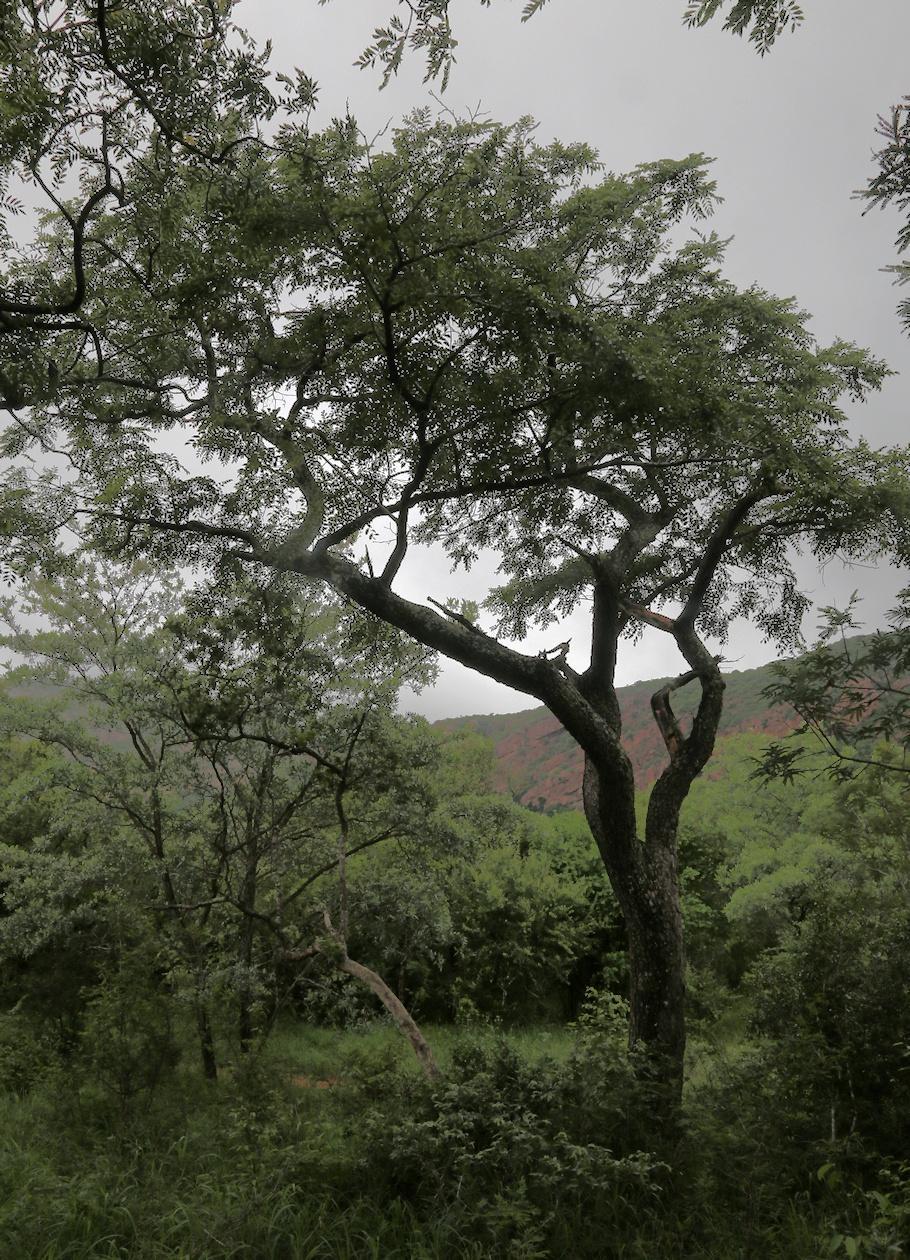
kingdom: Plantae
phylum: Tracheophyta
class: Magnoliopsida
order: Fabales
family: Fabaceae
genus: Pterocarpus
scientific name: Pterocarpus angolensis
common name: Bloodwood tree
